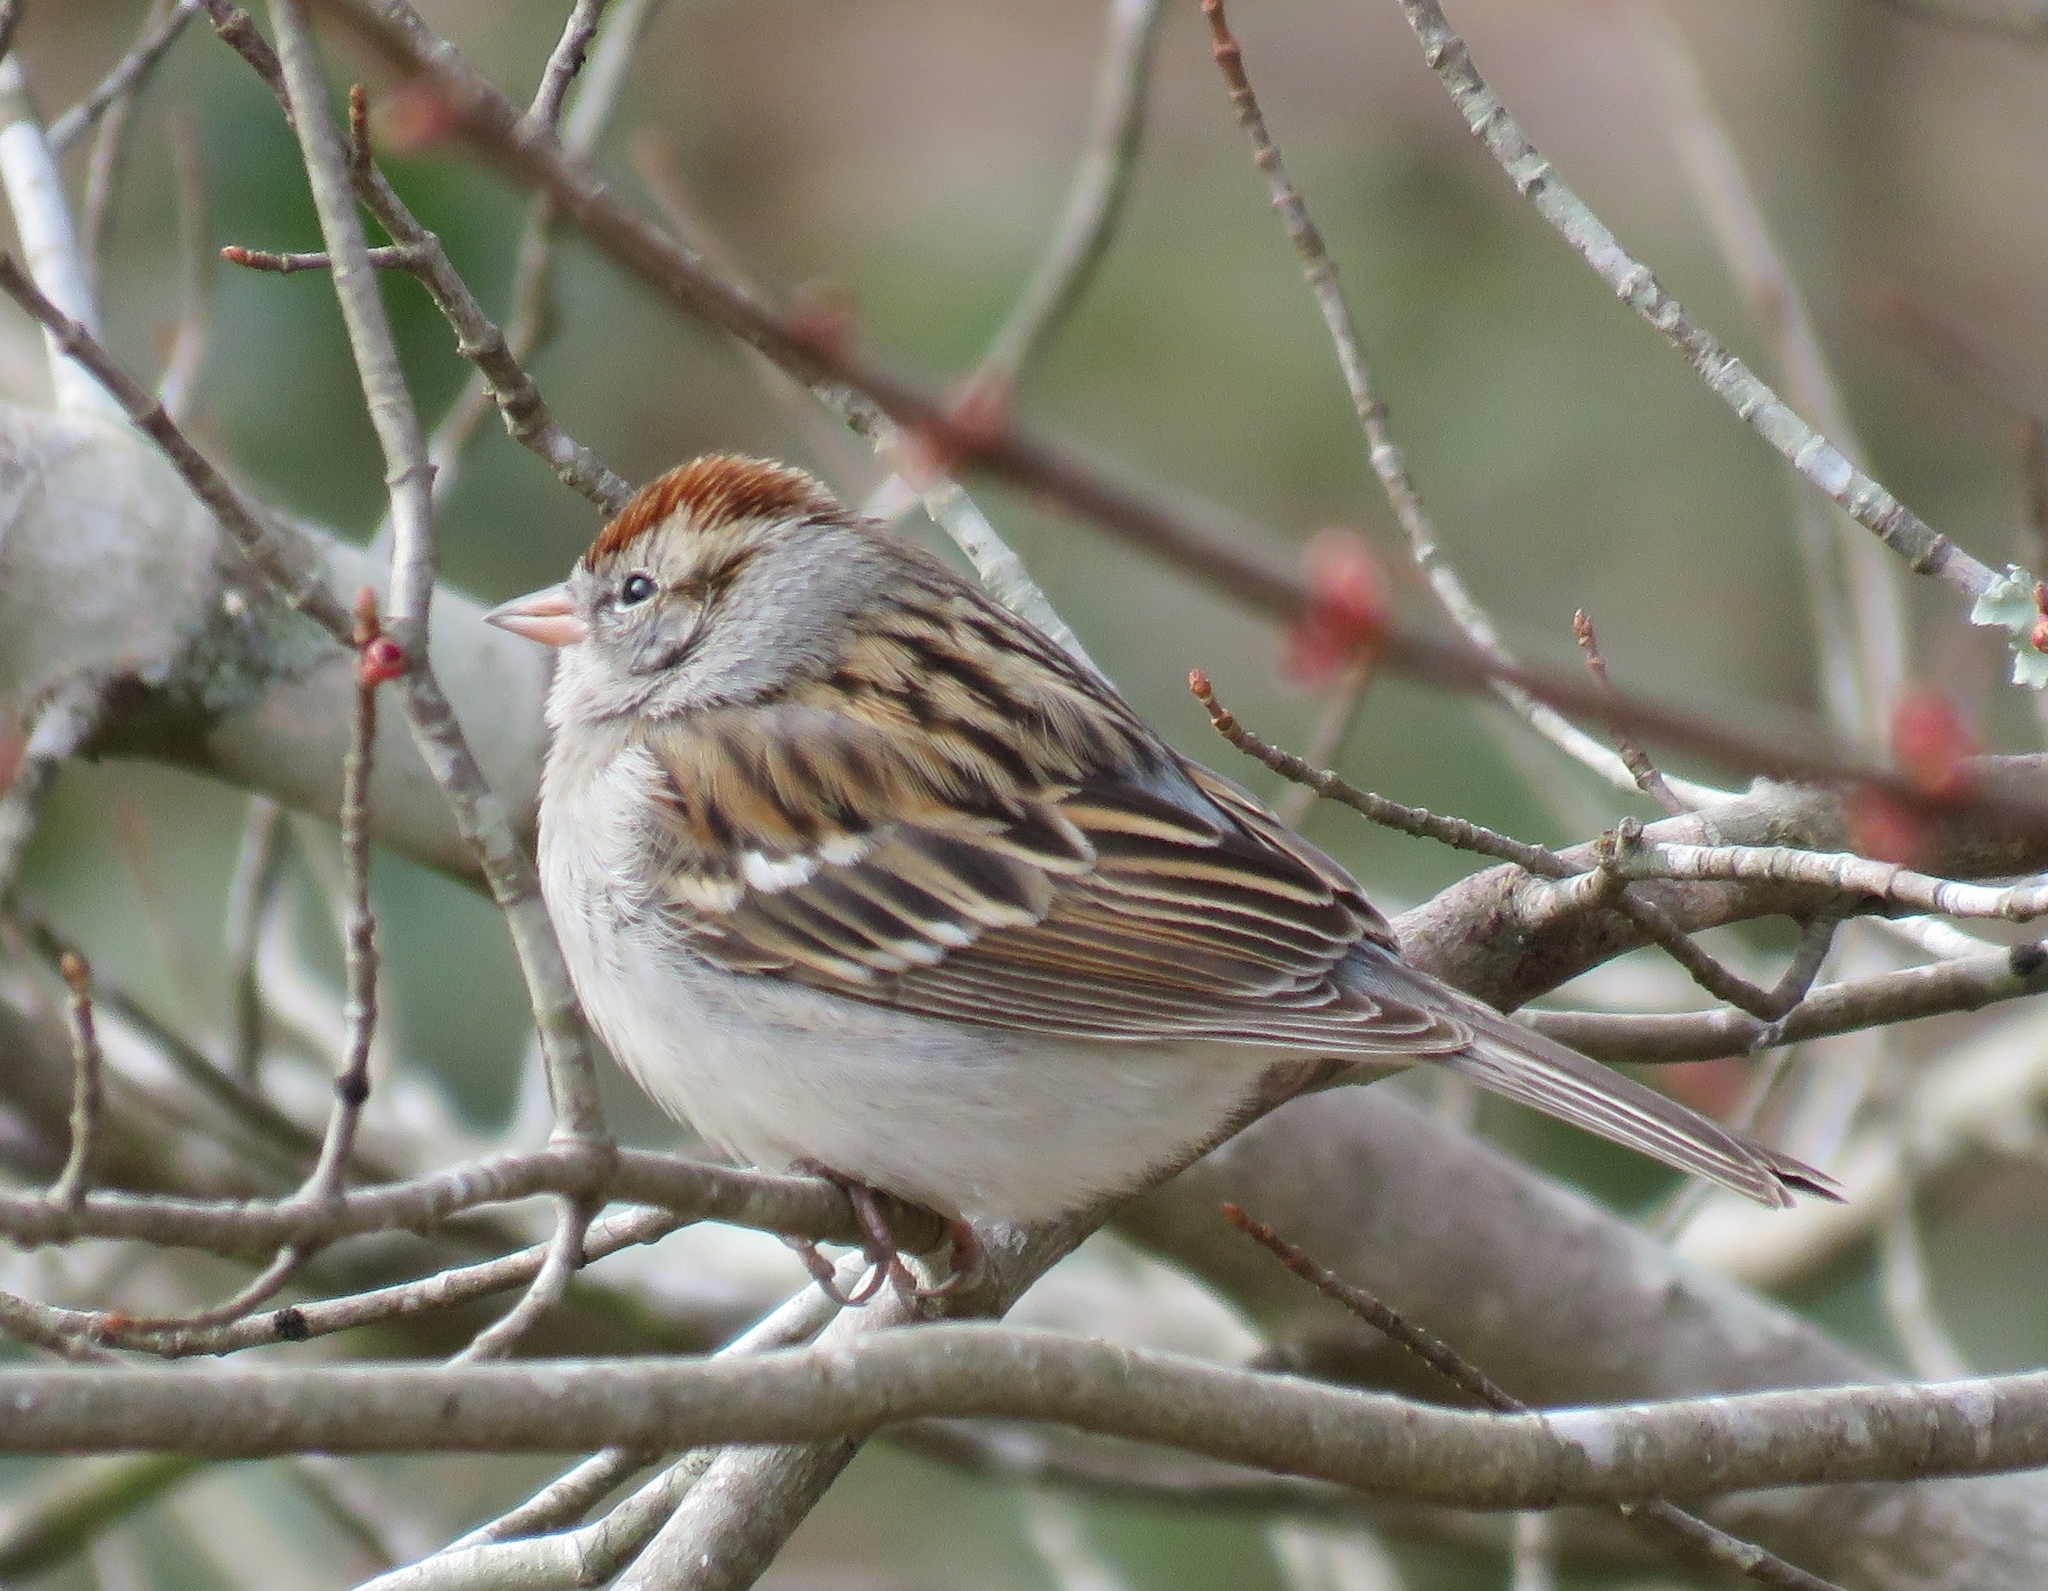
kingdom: Animalia
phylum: Chordata
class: Aves
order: Passeriformes
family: Passerellidae
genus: Spizella
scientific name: Spizella passerina
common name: Chipping sparrow
